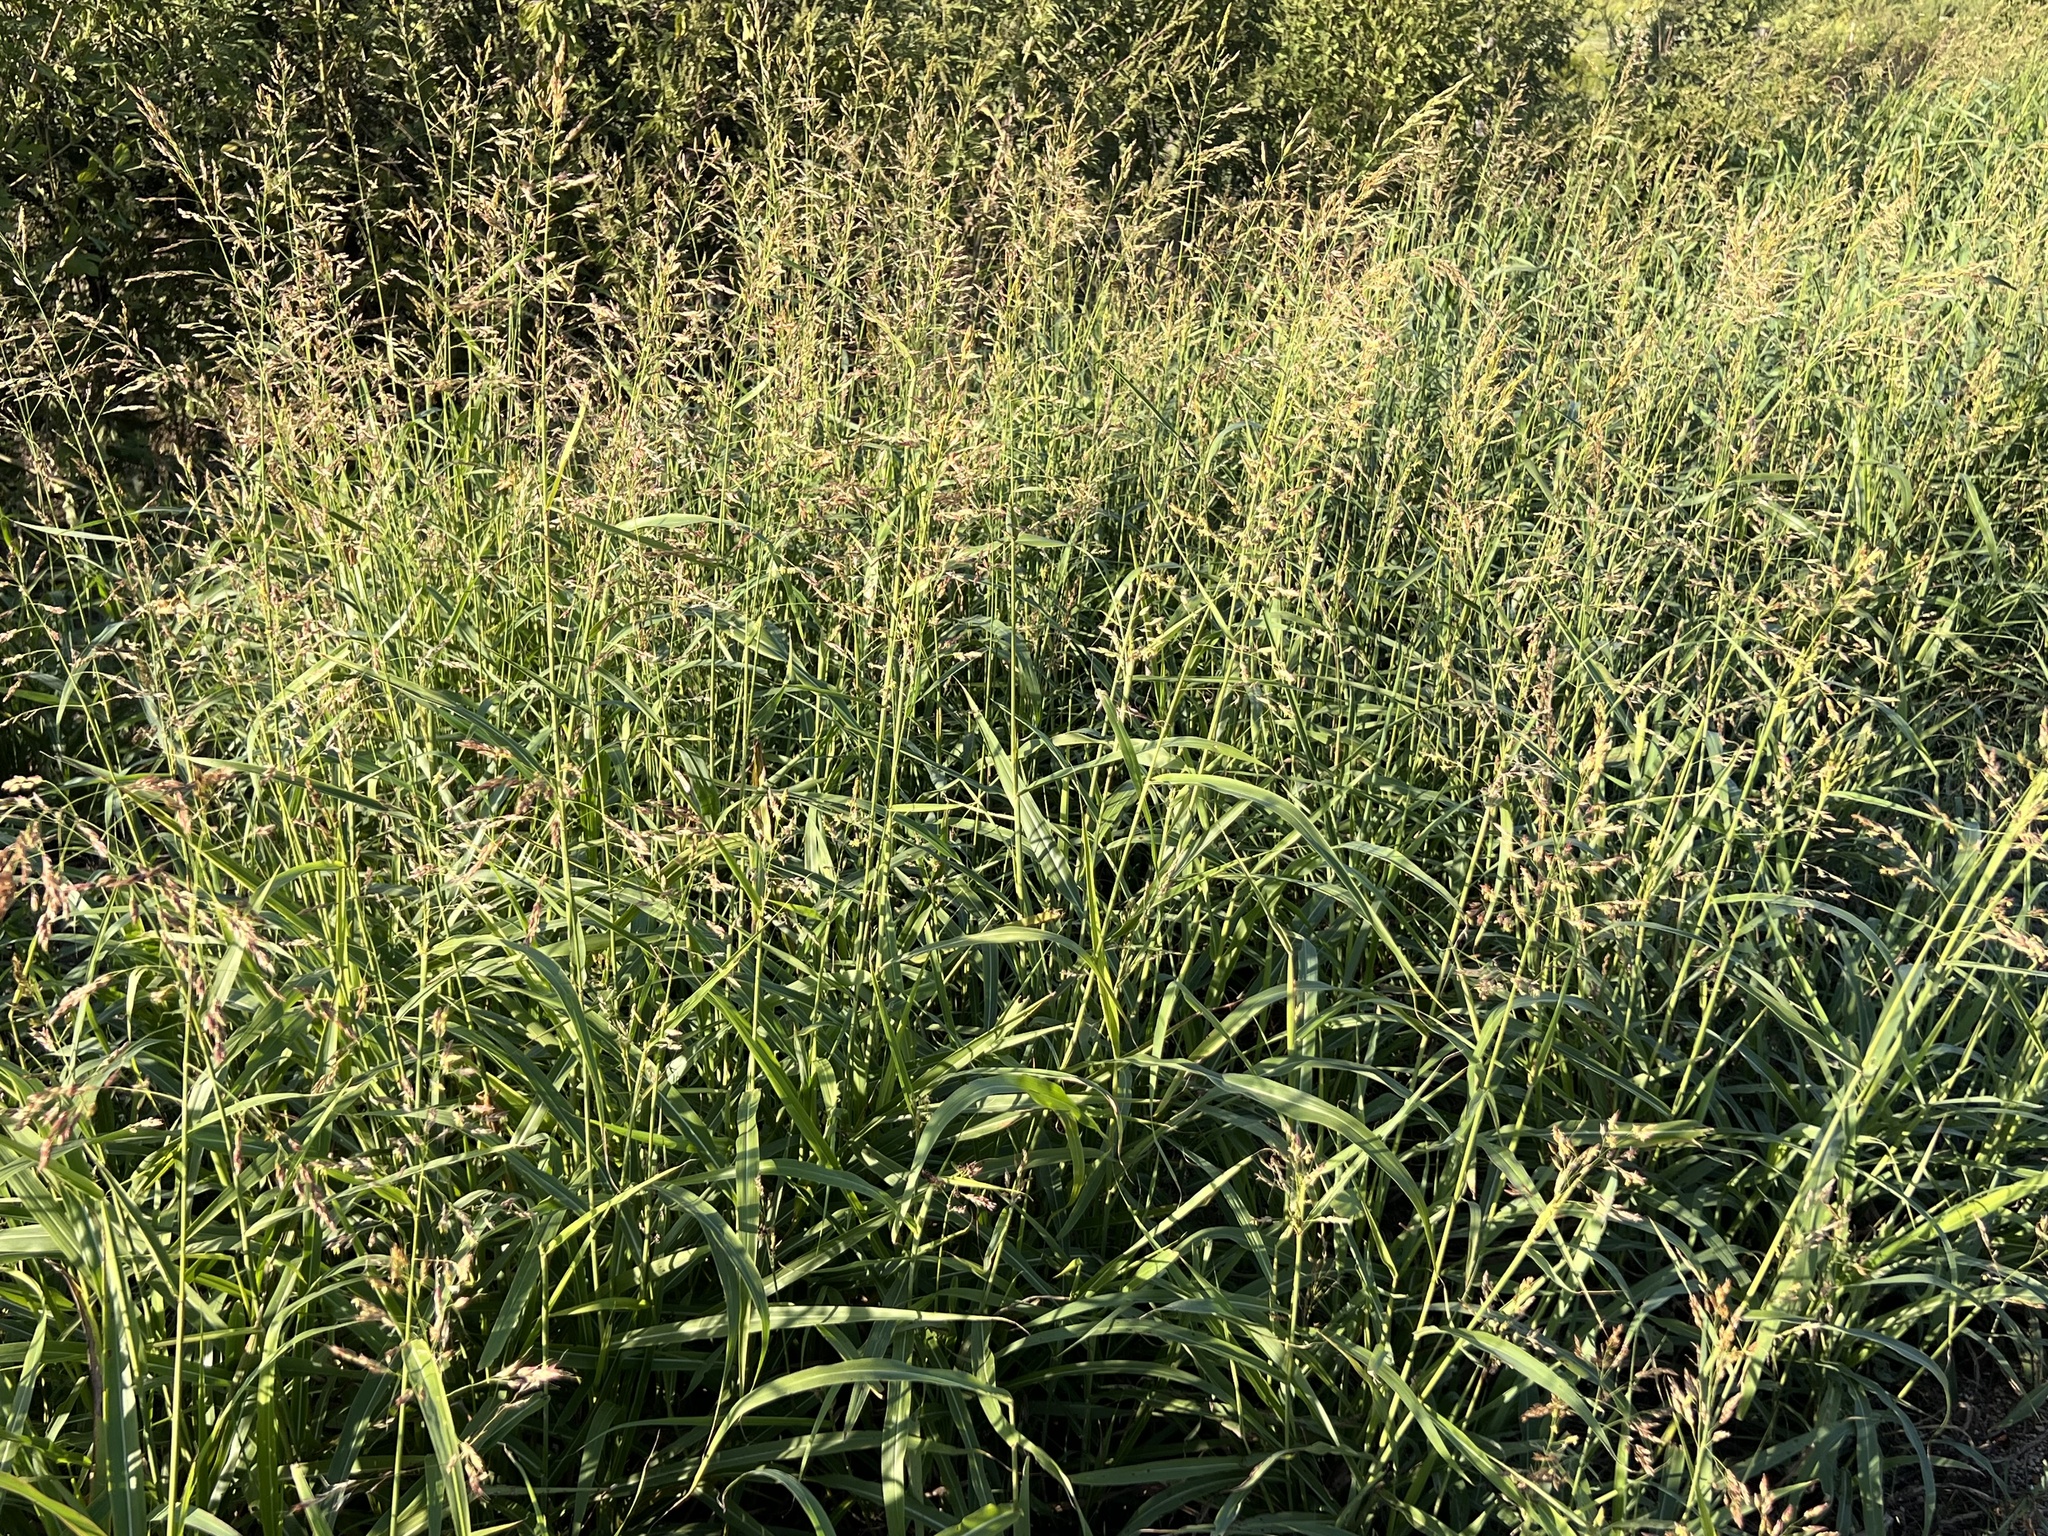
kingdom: Plantae
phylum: Tracheophyta
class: Liliopsida
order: Poales
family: Poaceae
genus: Sorghum
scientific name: Sorghum halepense
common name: Johnson-grass
